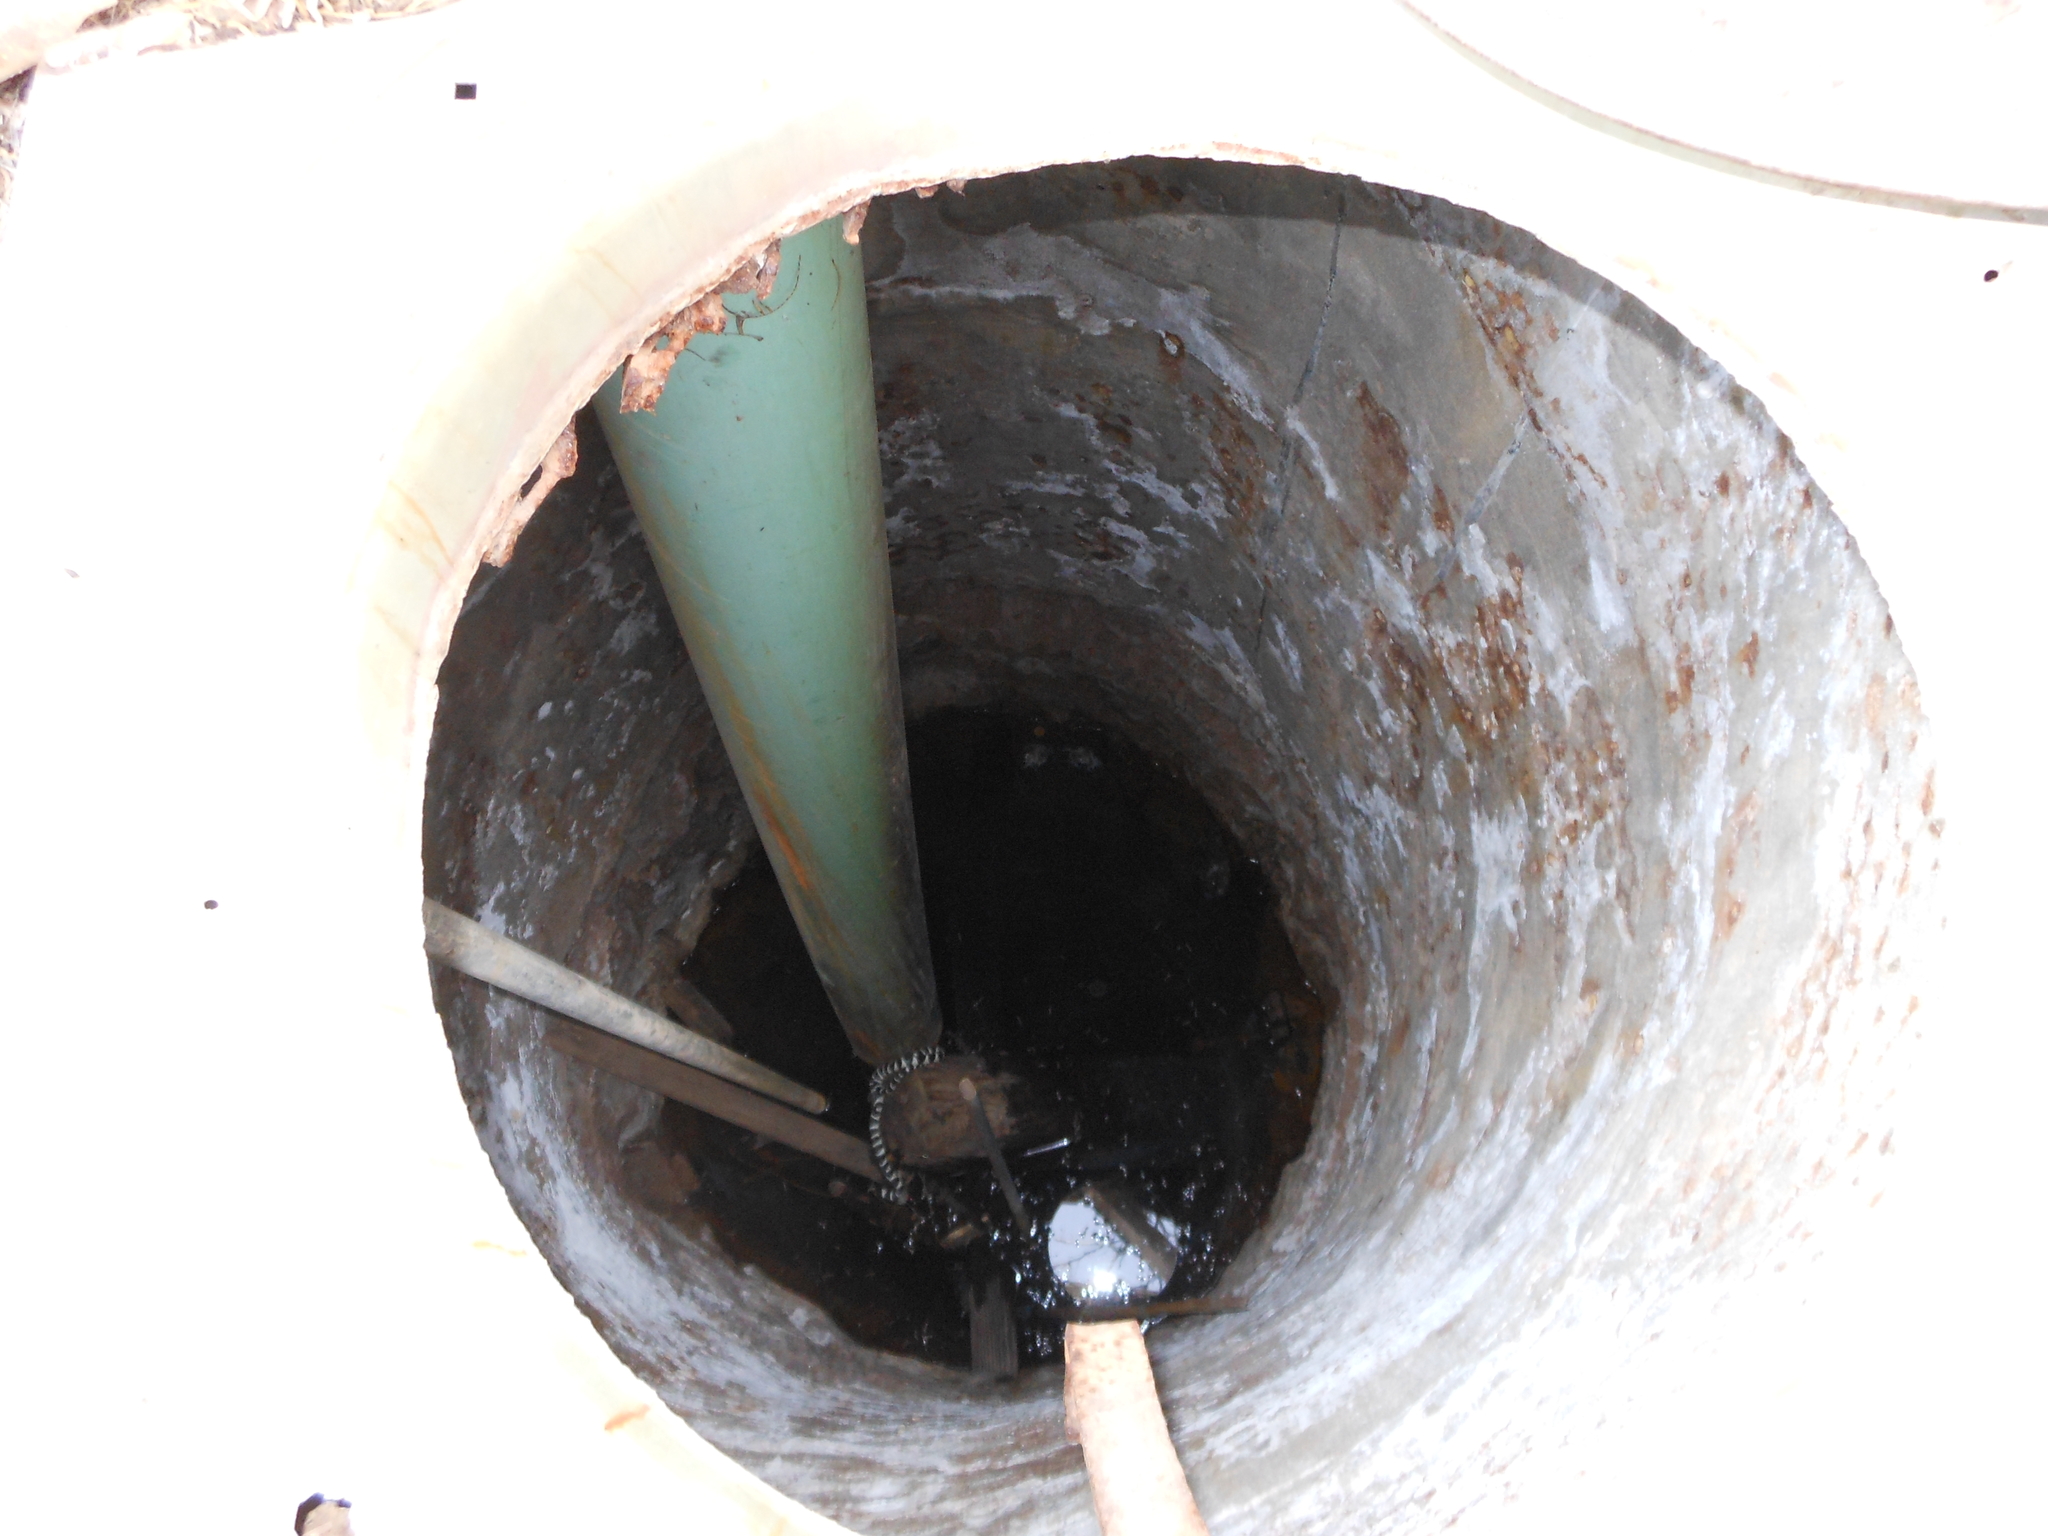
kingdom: Animalia
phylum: Chordata
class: Squamata
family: Colubridae
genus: Lampropeltis
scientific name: Lampropeltis californiae
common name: California kingsnake
